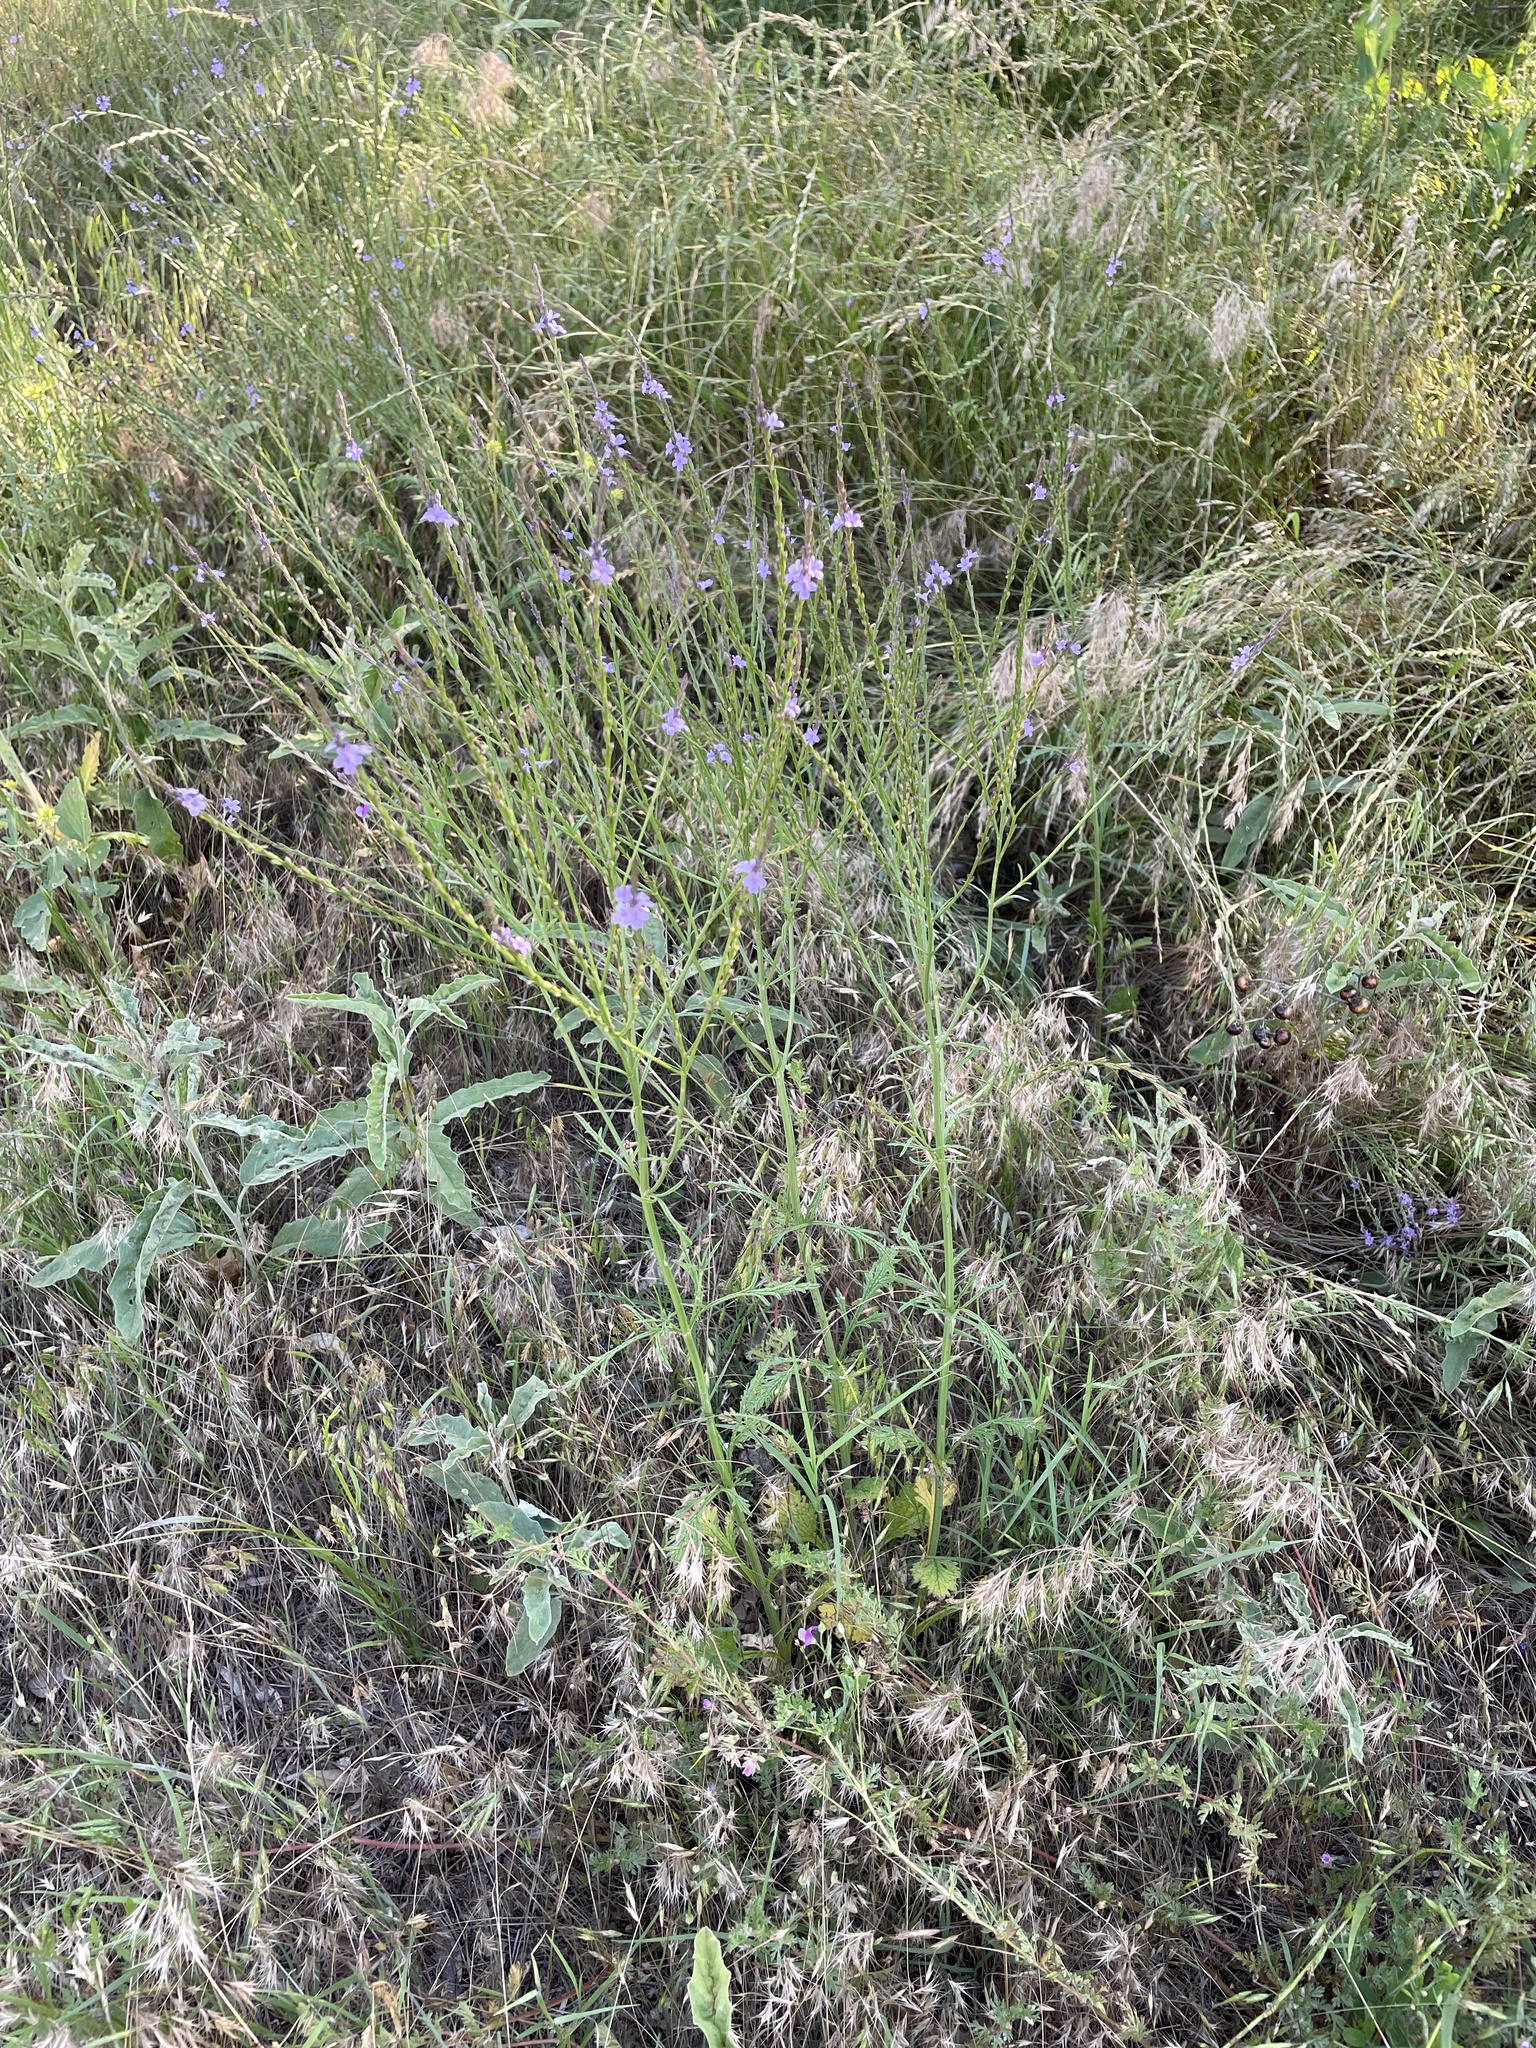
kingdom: Plantae
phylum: Tracheophyta
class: Magnoliopsida
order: Lamiales
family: Verbenaceae
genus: Verbena
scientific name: Verbena halei
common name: Texas vervain
